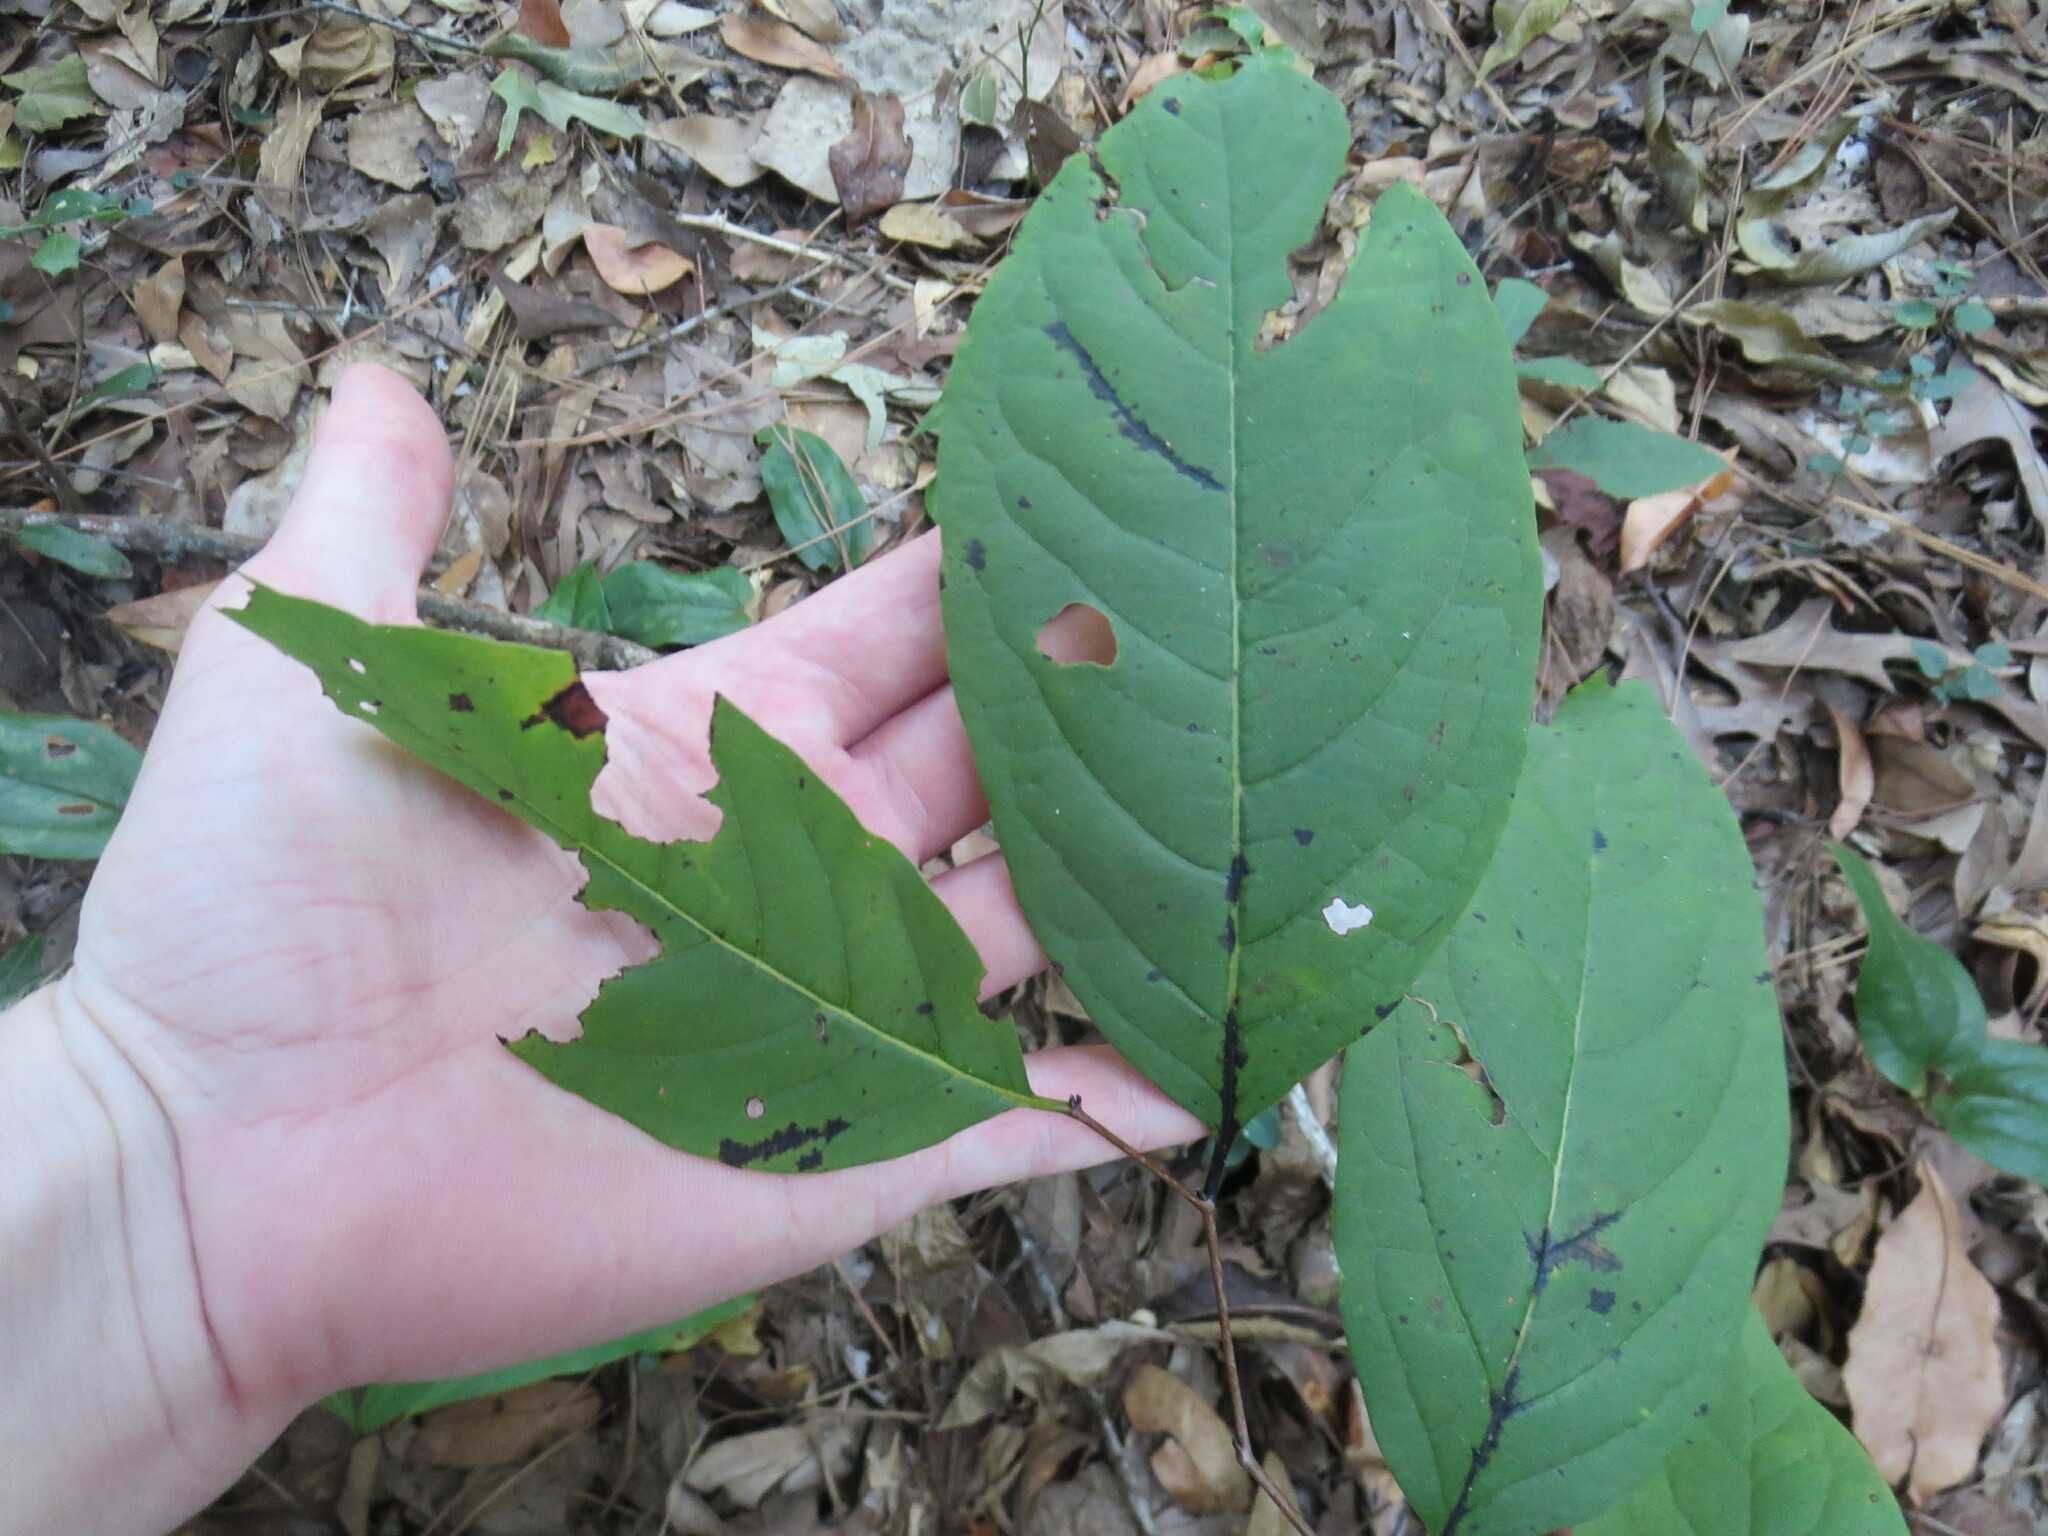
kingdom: Plantae
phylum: Tracheophyta
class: Magnoliopsida
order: Ericales
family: Ebenaceae
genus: Diospyros
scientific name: Diospyros virginiana
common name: Persimmon
